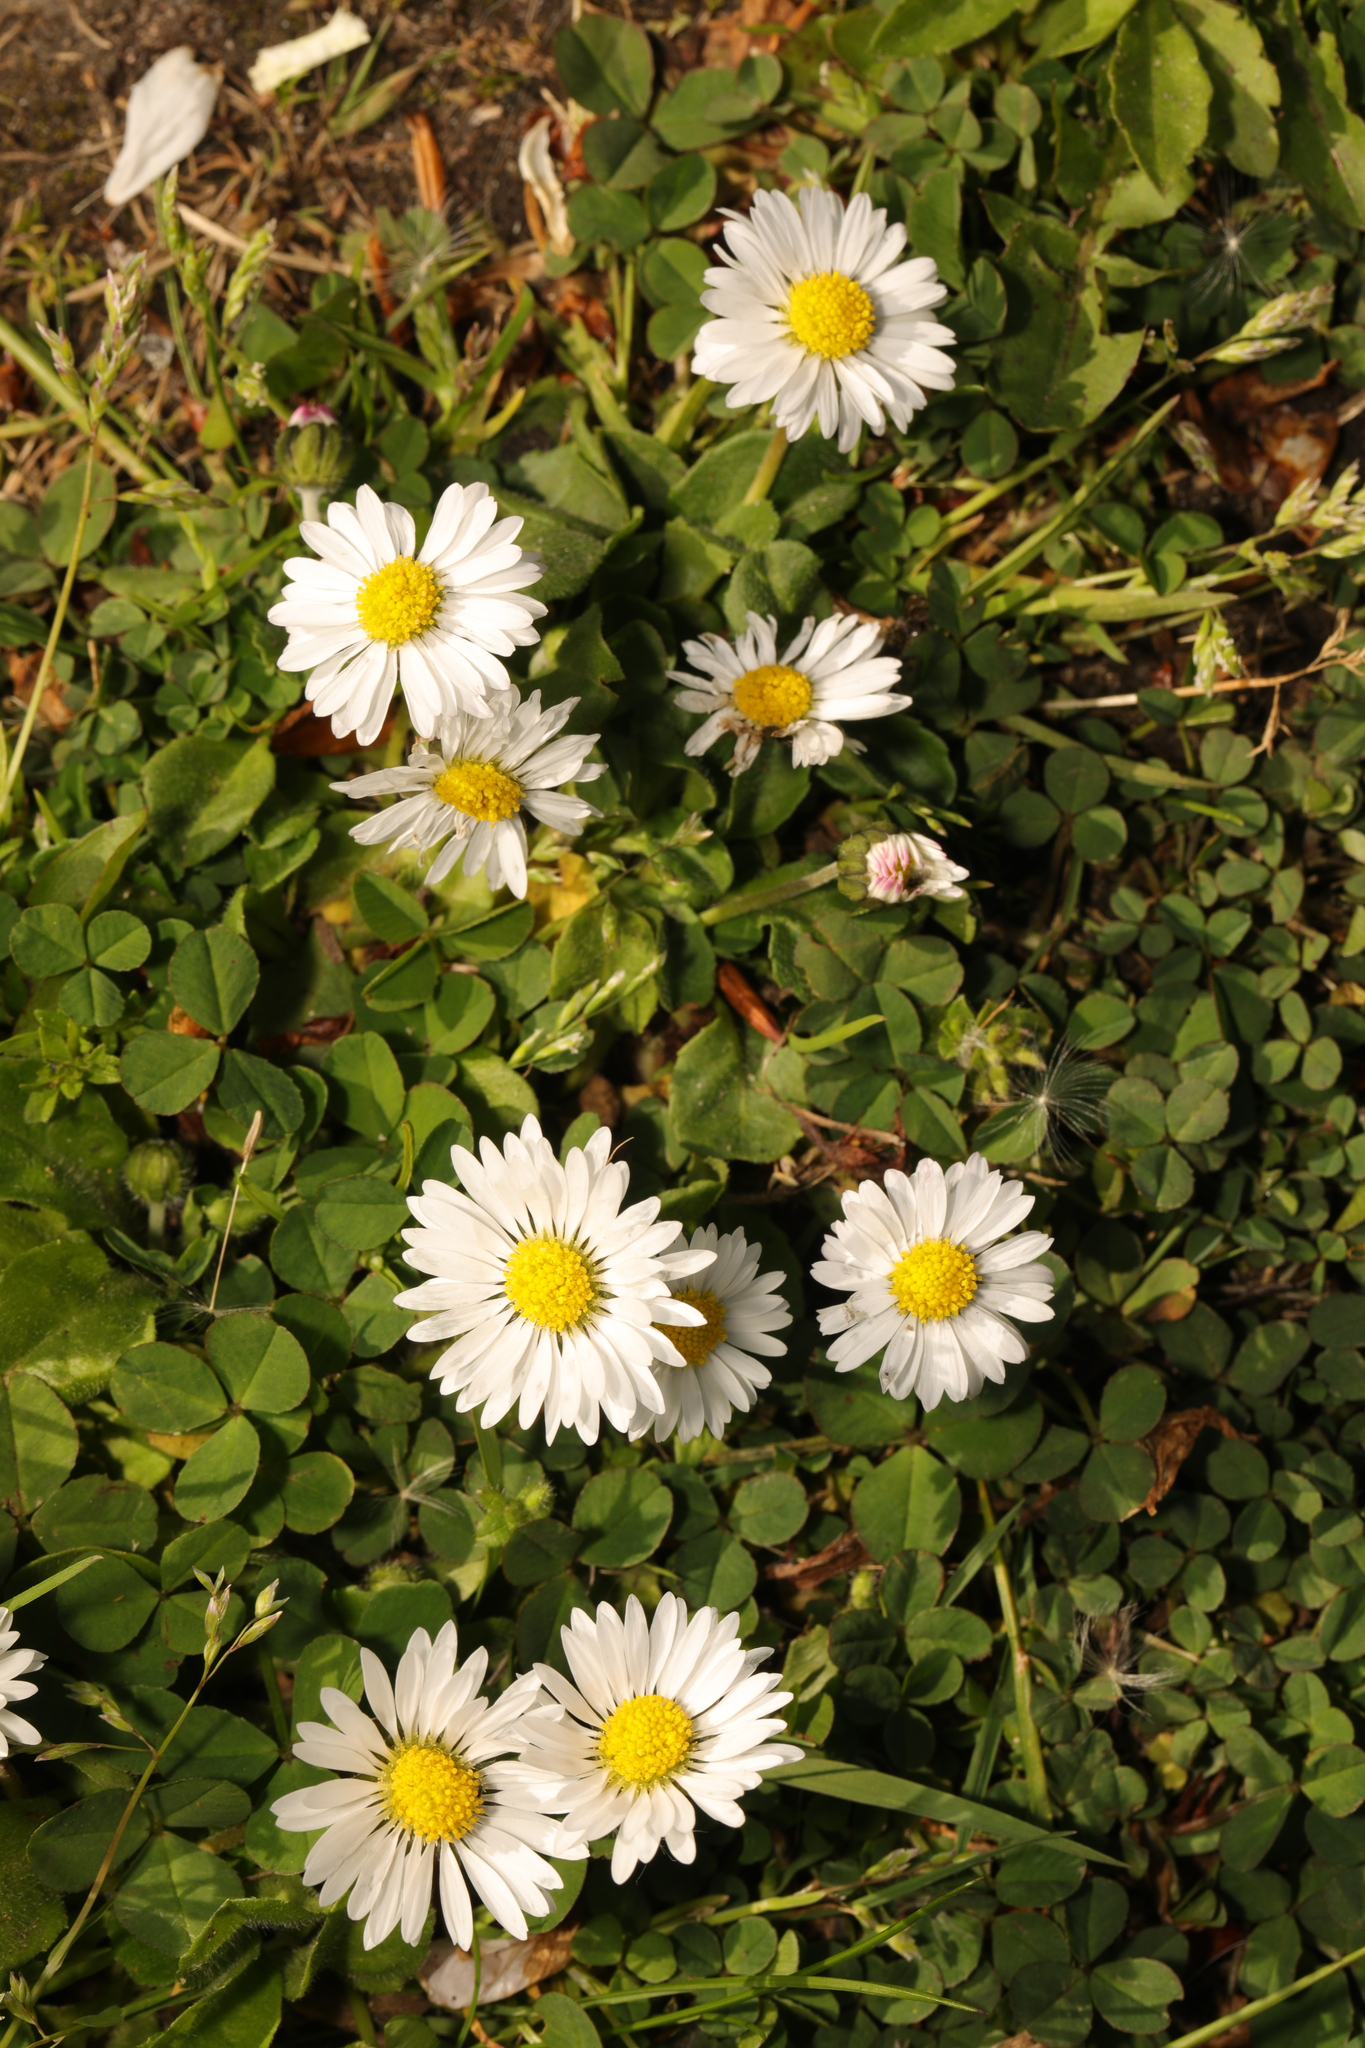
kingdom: Plantae
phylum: Tracheophyta
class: Magnoliopsida
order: Asterales
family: Asteraceae
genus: Bellis
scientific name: Bellis perennis
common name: Lawndaisy
